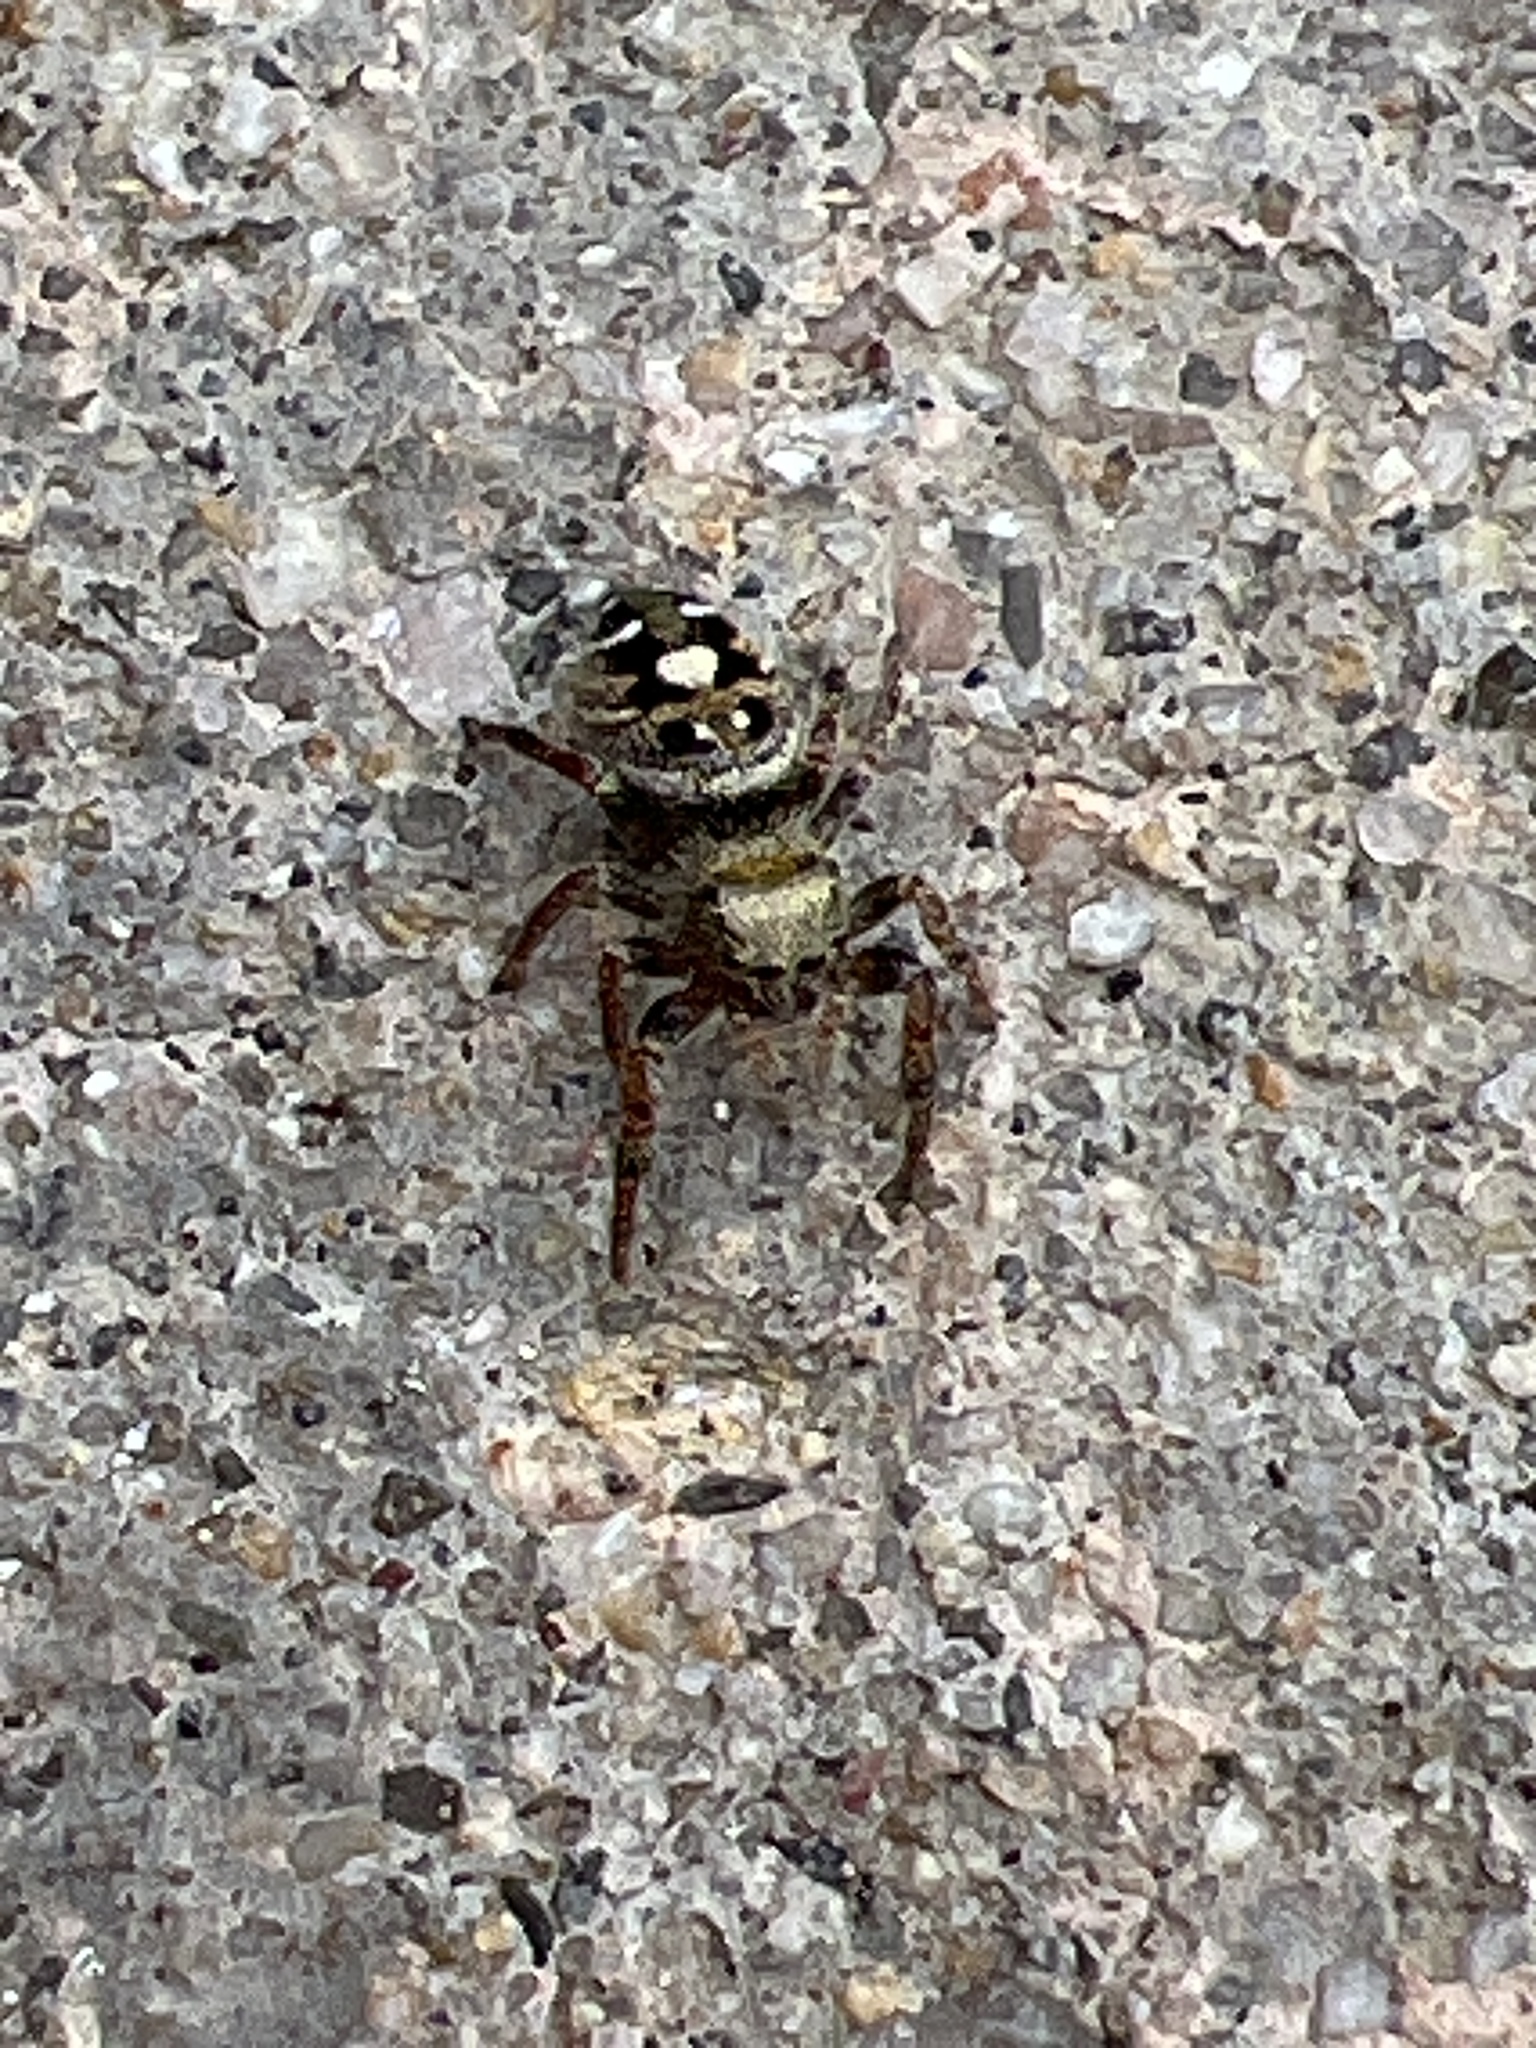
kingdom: Animalia
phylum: Arthropoda
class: Arachnida
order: Araneae
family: Salticidae
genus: Phidippus
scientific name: Phidippus audax
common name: Bold jumper
